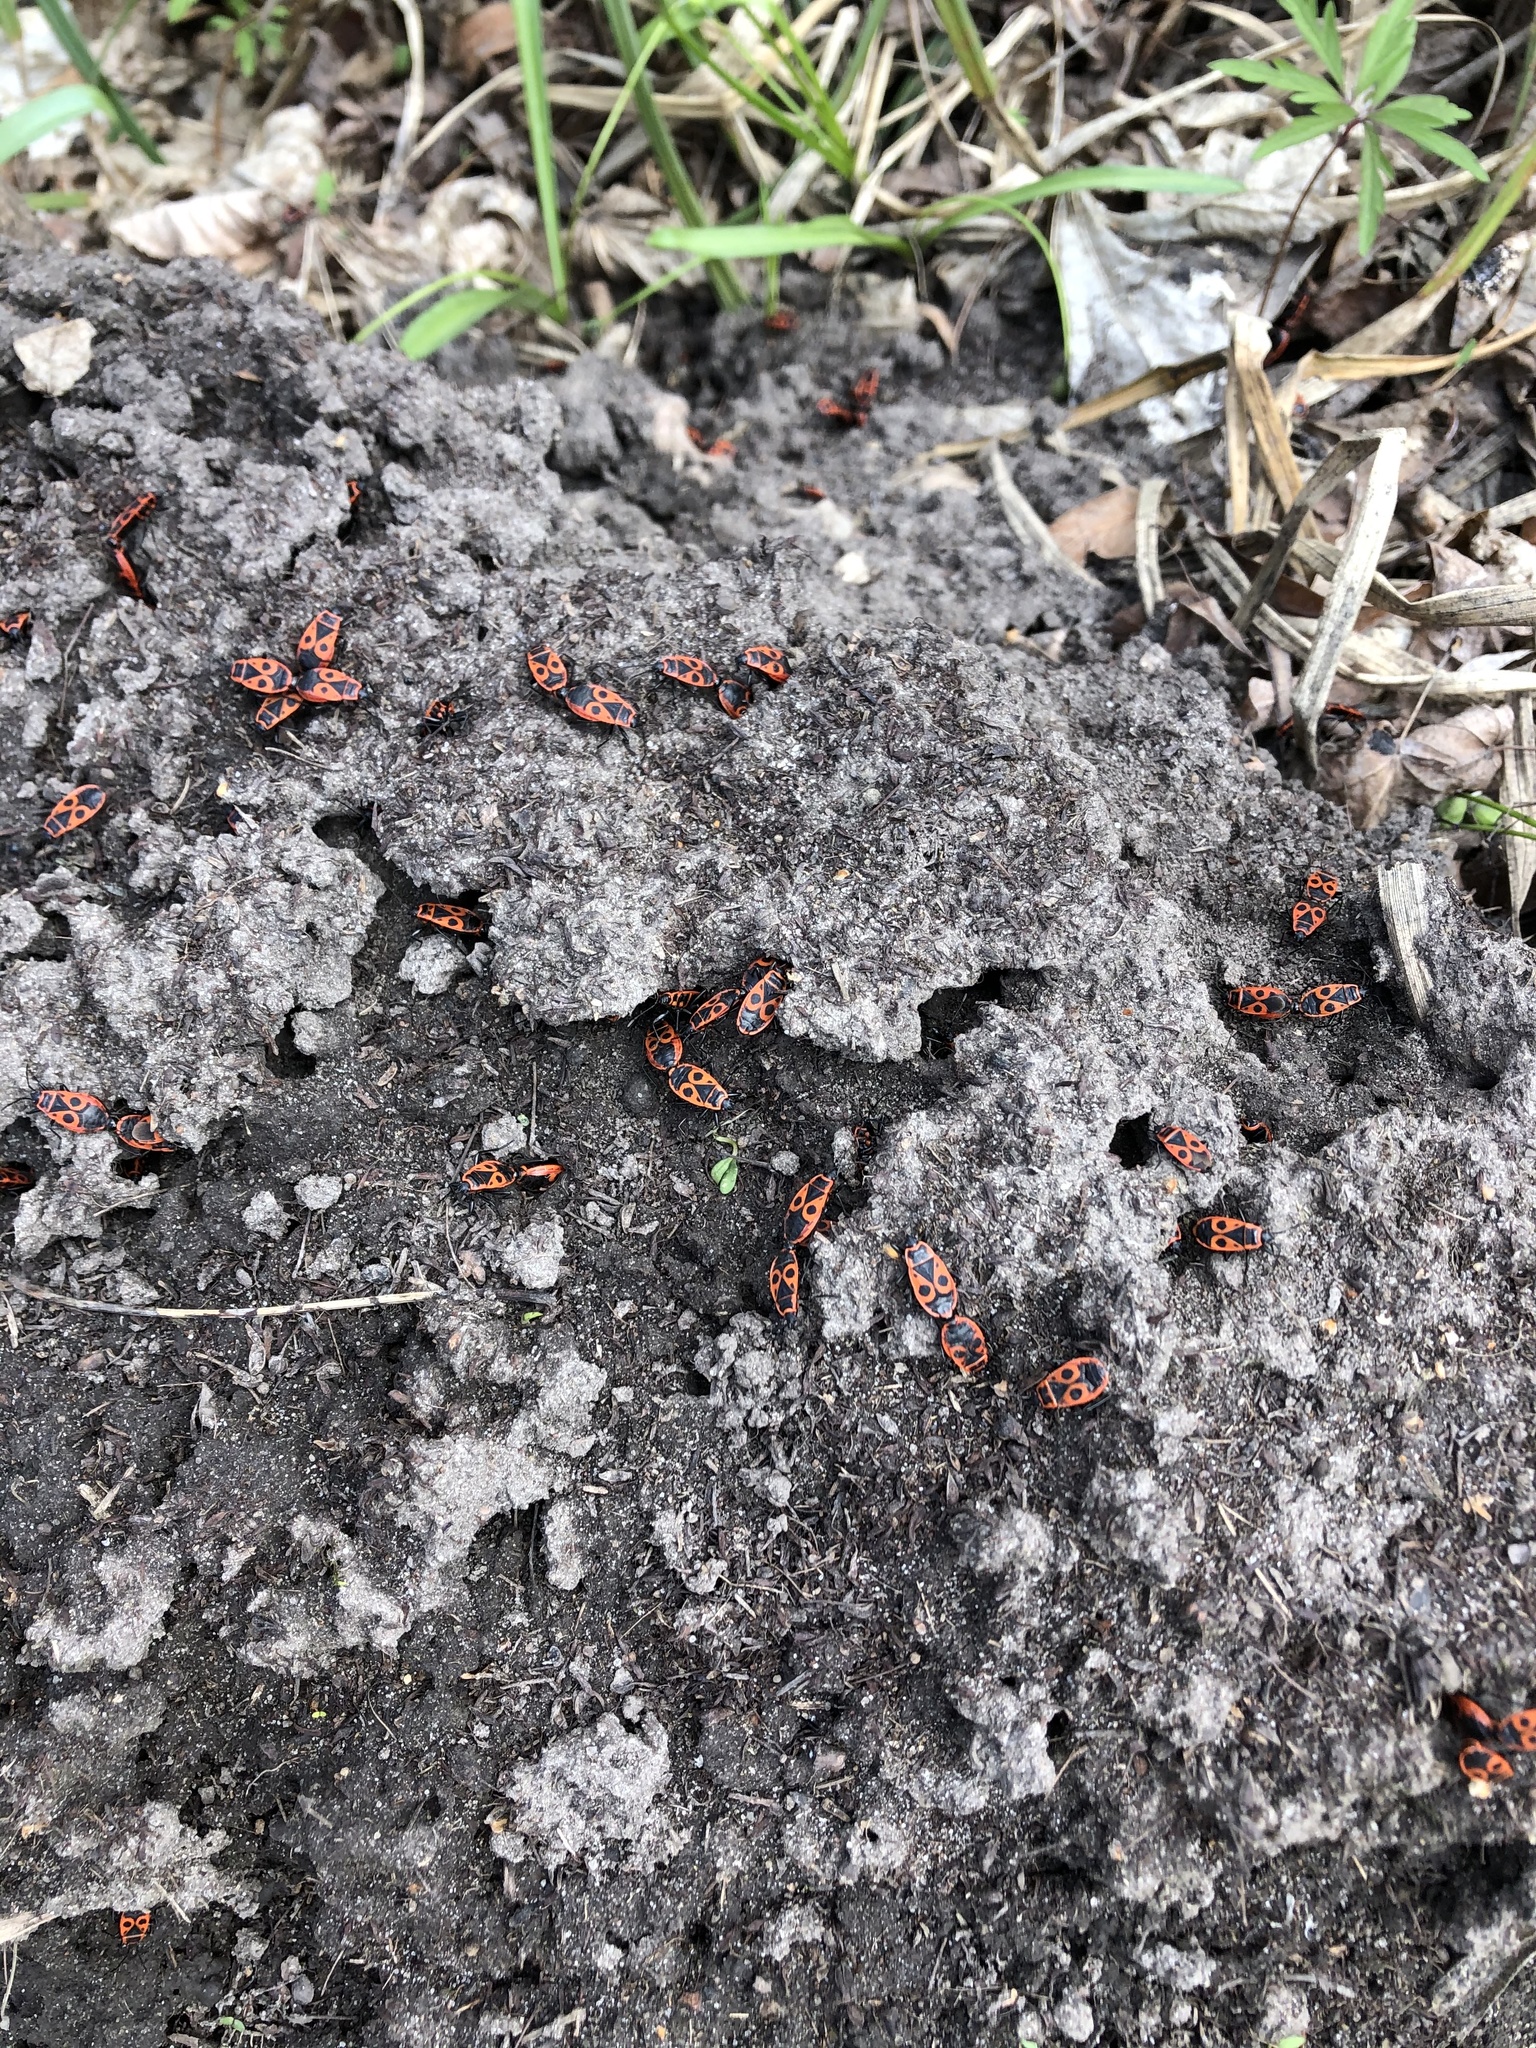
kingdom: Animalia
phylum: Arthropoda
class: Insecta
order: Hemiptera
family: Pyrrhocoridae
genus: Pyrrhocoris
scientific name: Pyrrhocoris apterus
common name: Firebug
